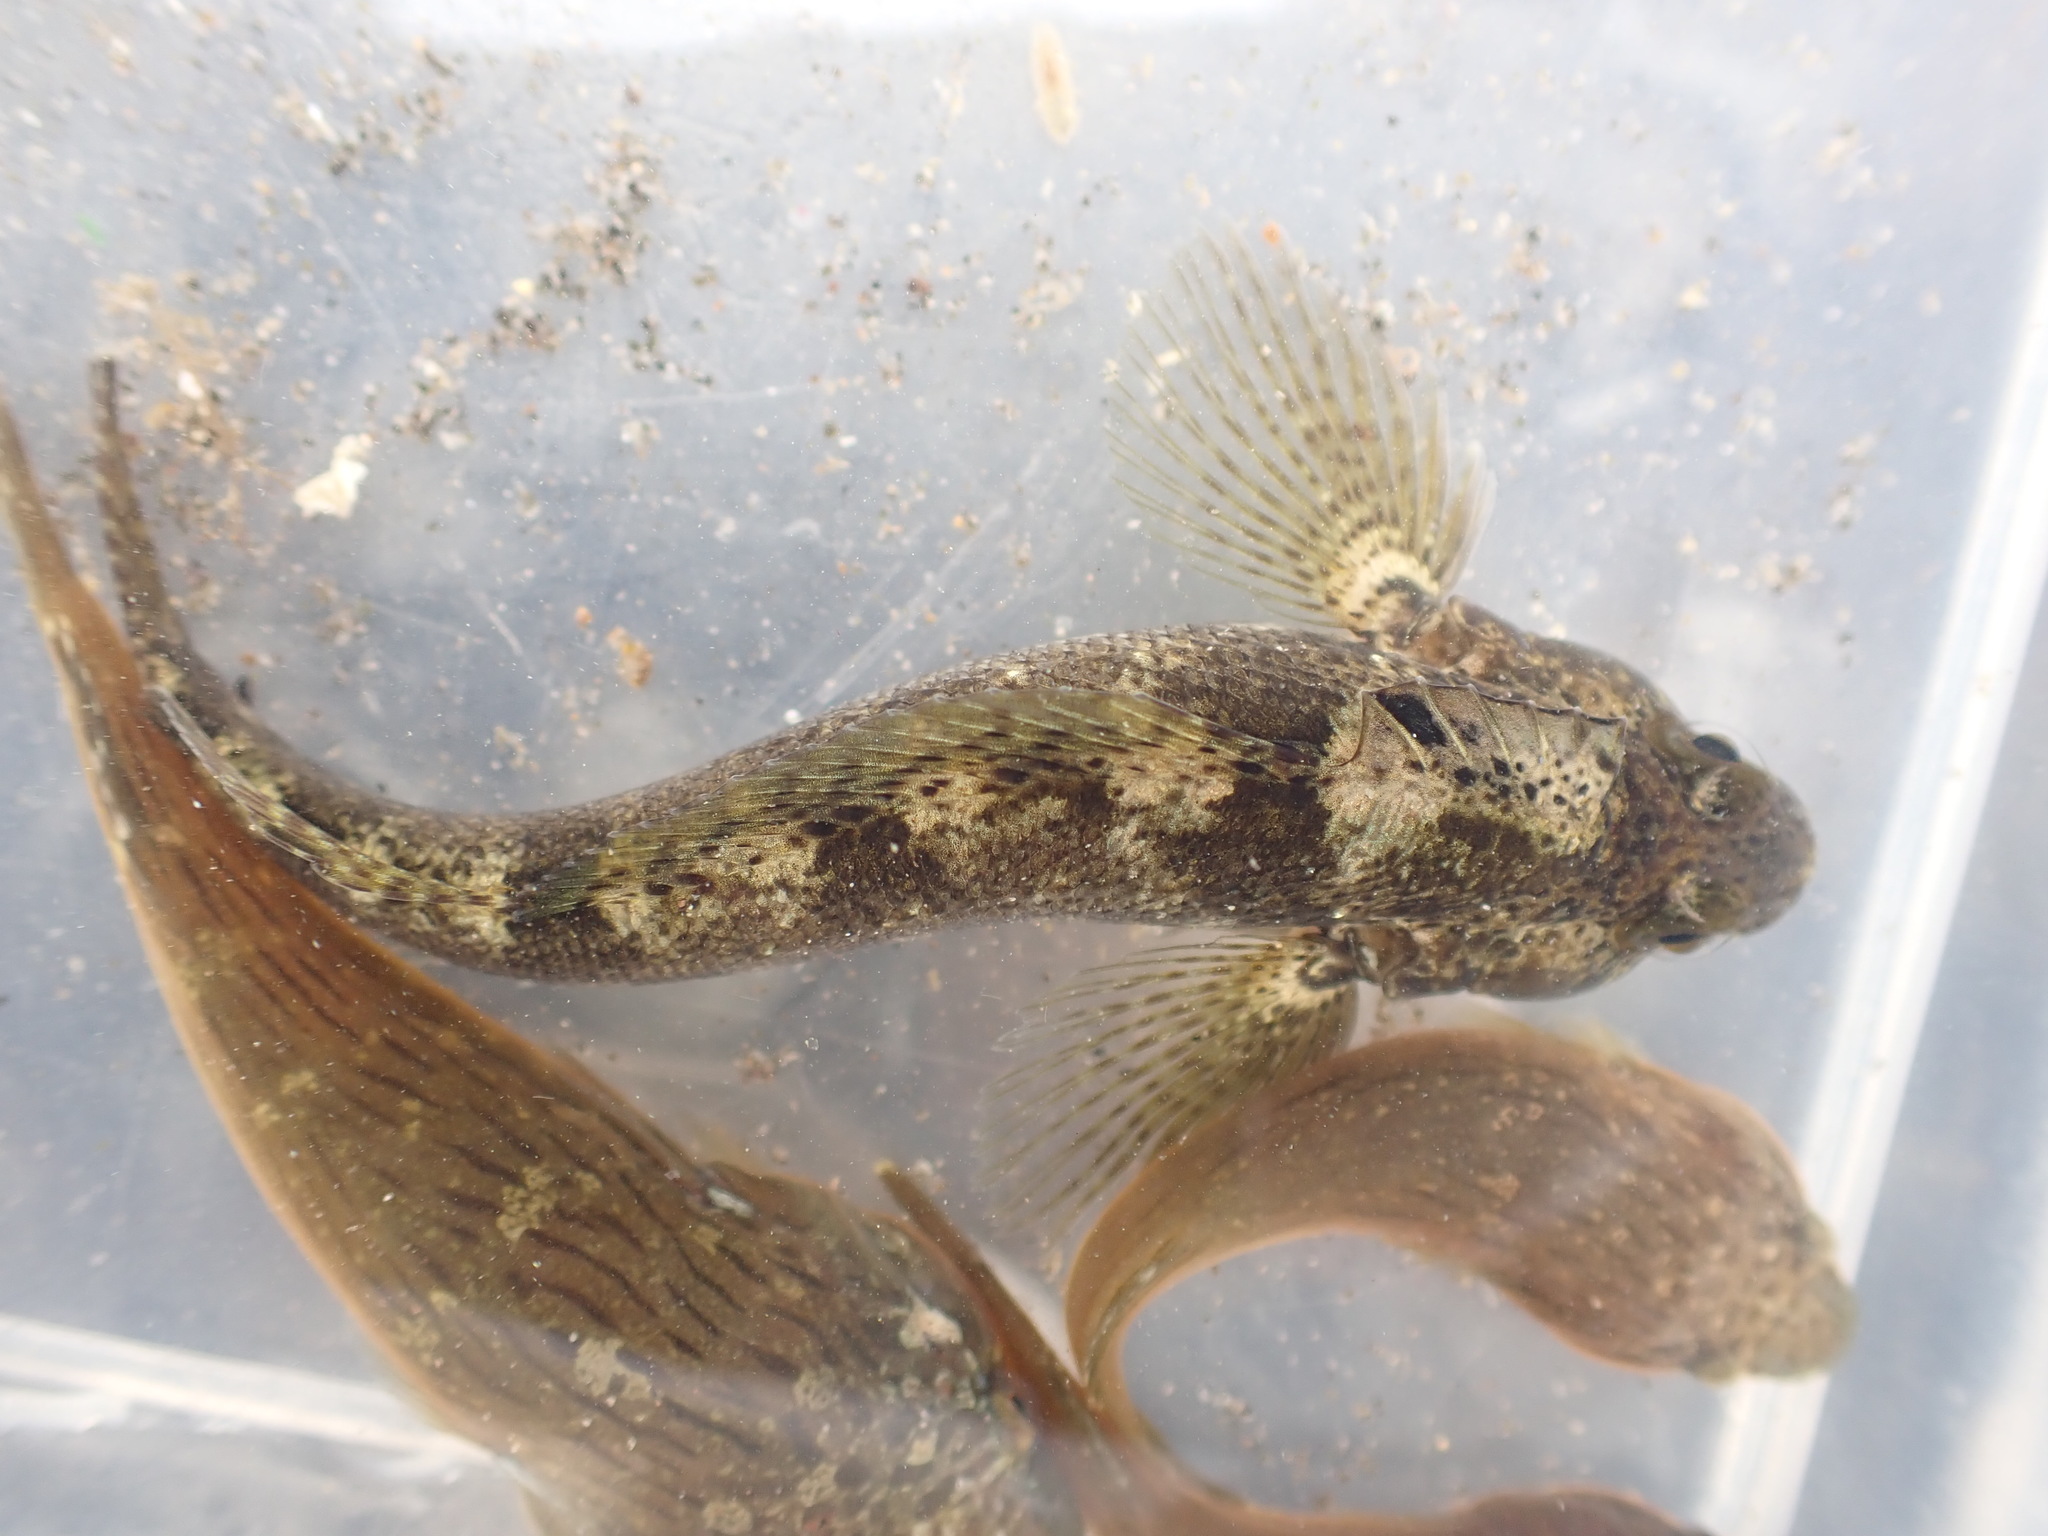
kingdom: Animalia
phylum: Chordata
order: Perciformes
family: Tripterygiidae
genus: Forsterygion
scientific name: Forsterygion gymnotum
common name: Multifid-tentacled robust triplefin
